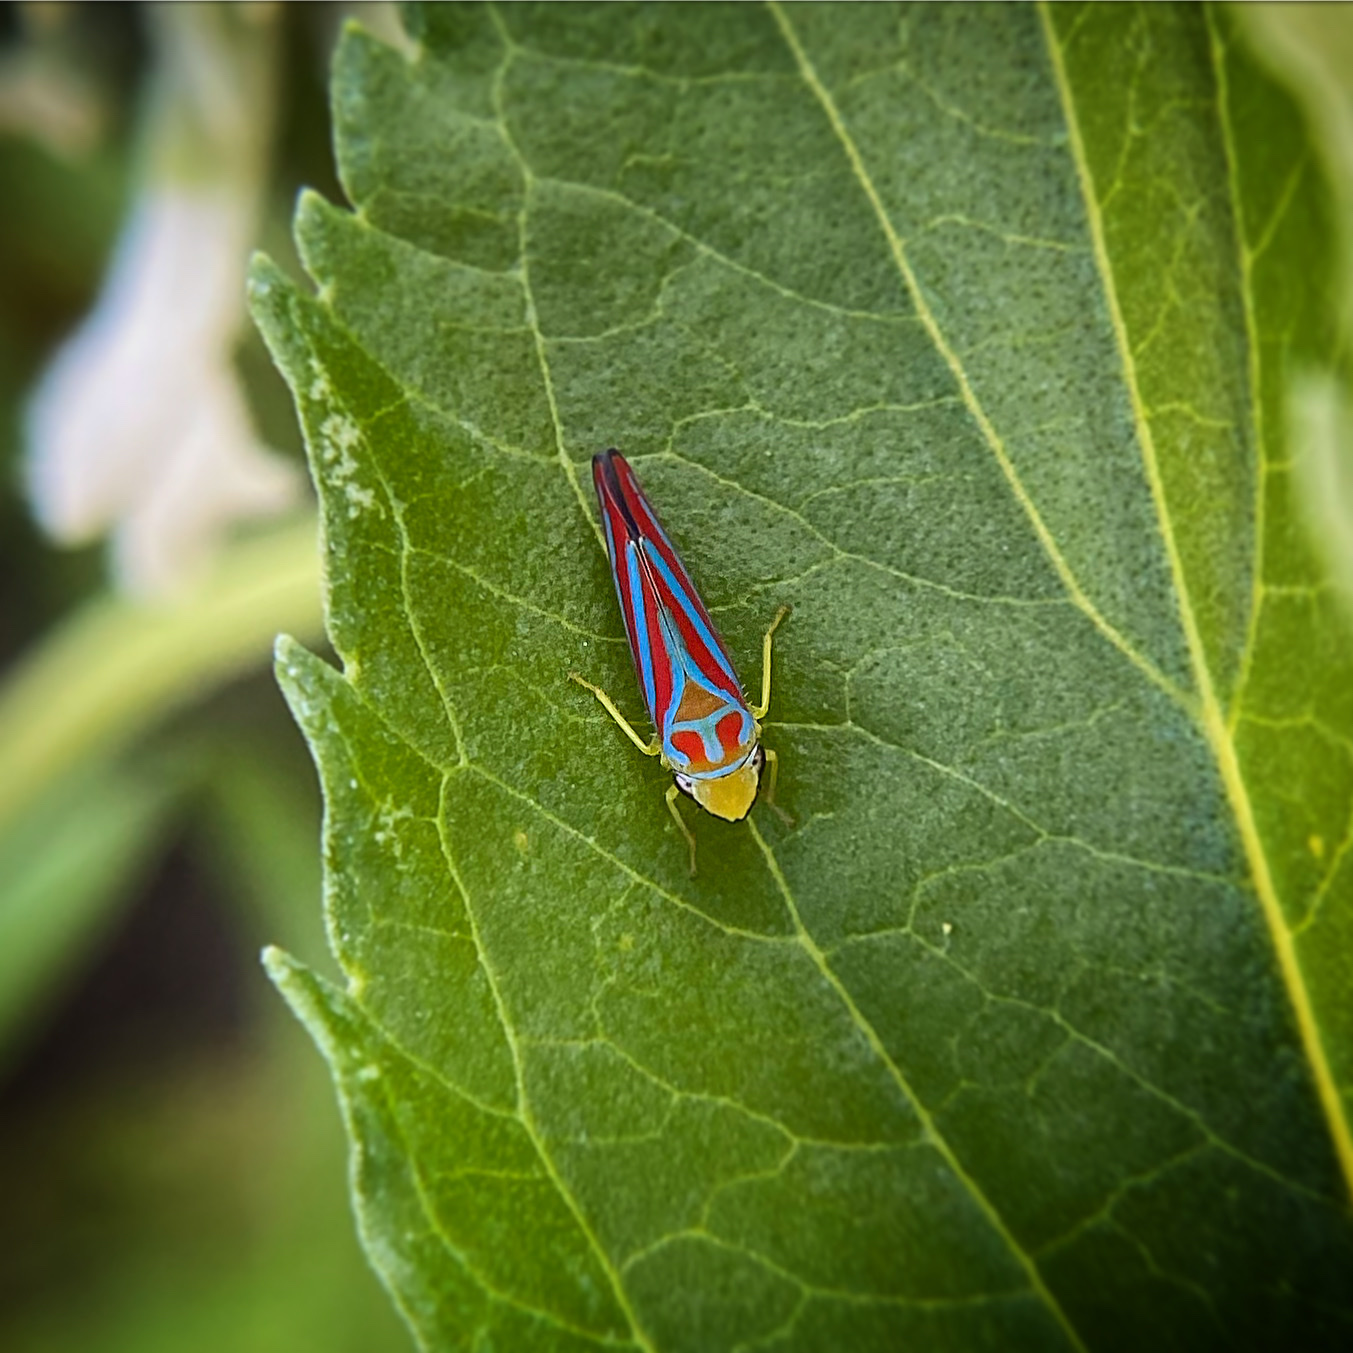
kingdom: Animalia
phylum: Arthropoda
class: Insecta
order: Hemiptera
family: Cicadellidae
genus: Graphocephala
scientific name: Graphocephala coccinea
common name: Candy-striped leafhopper
